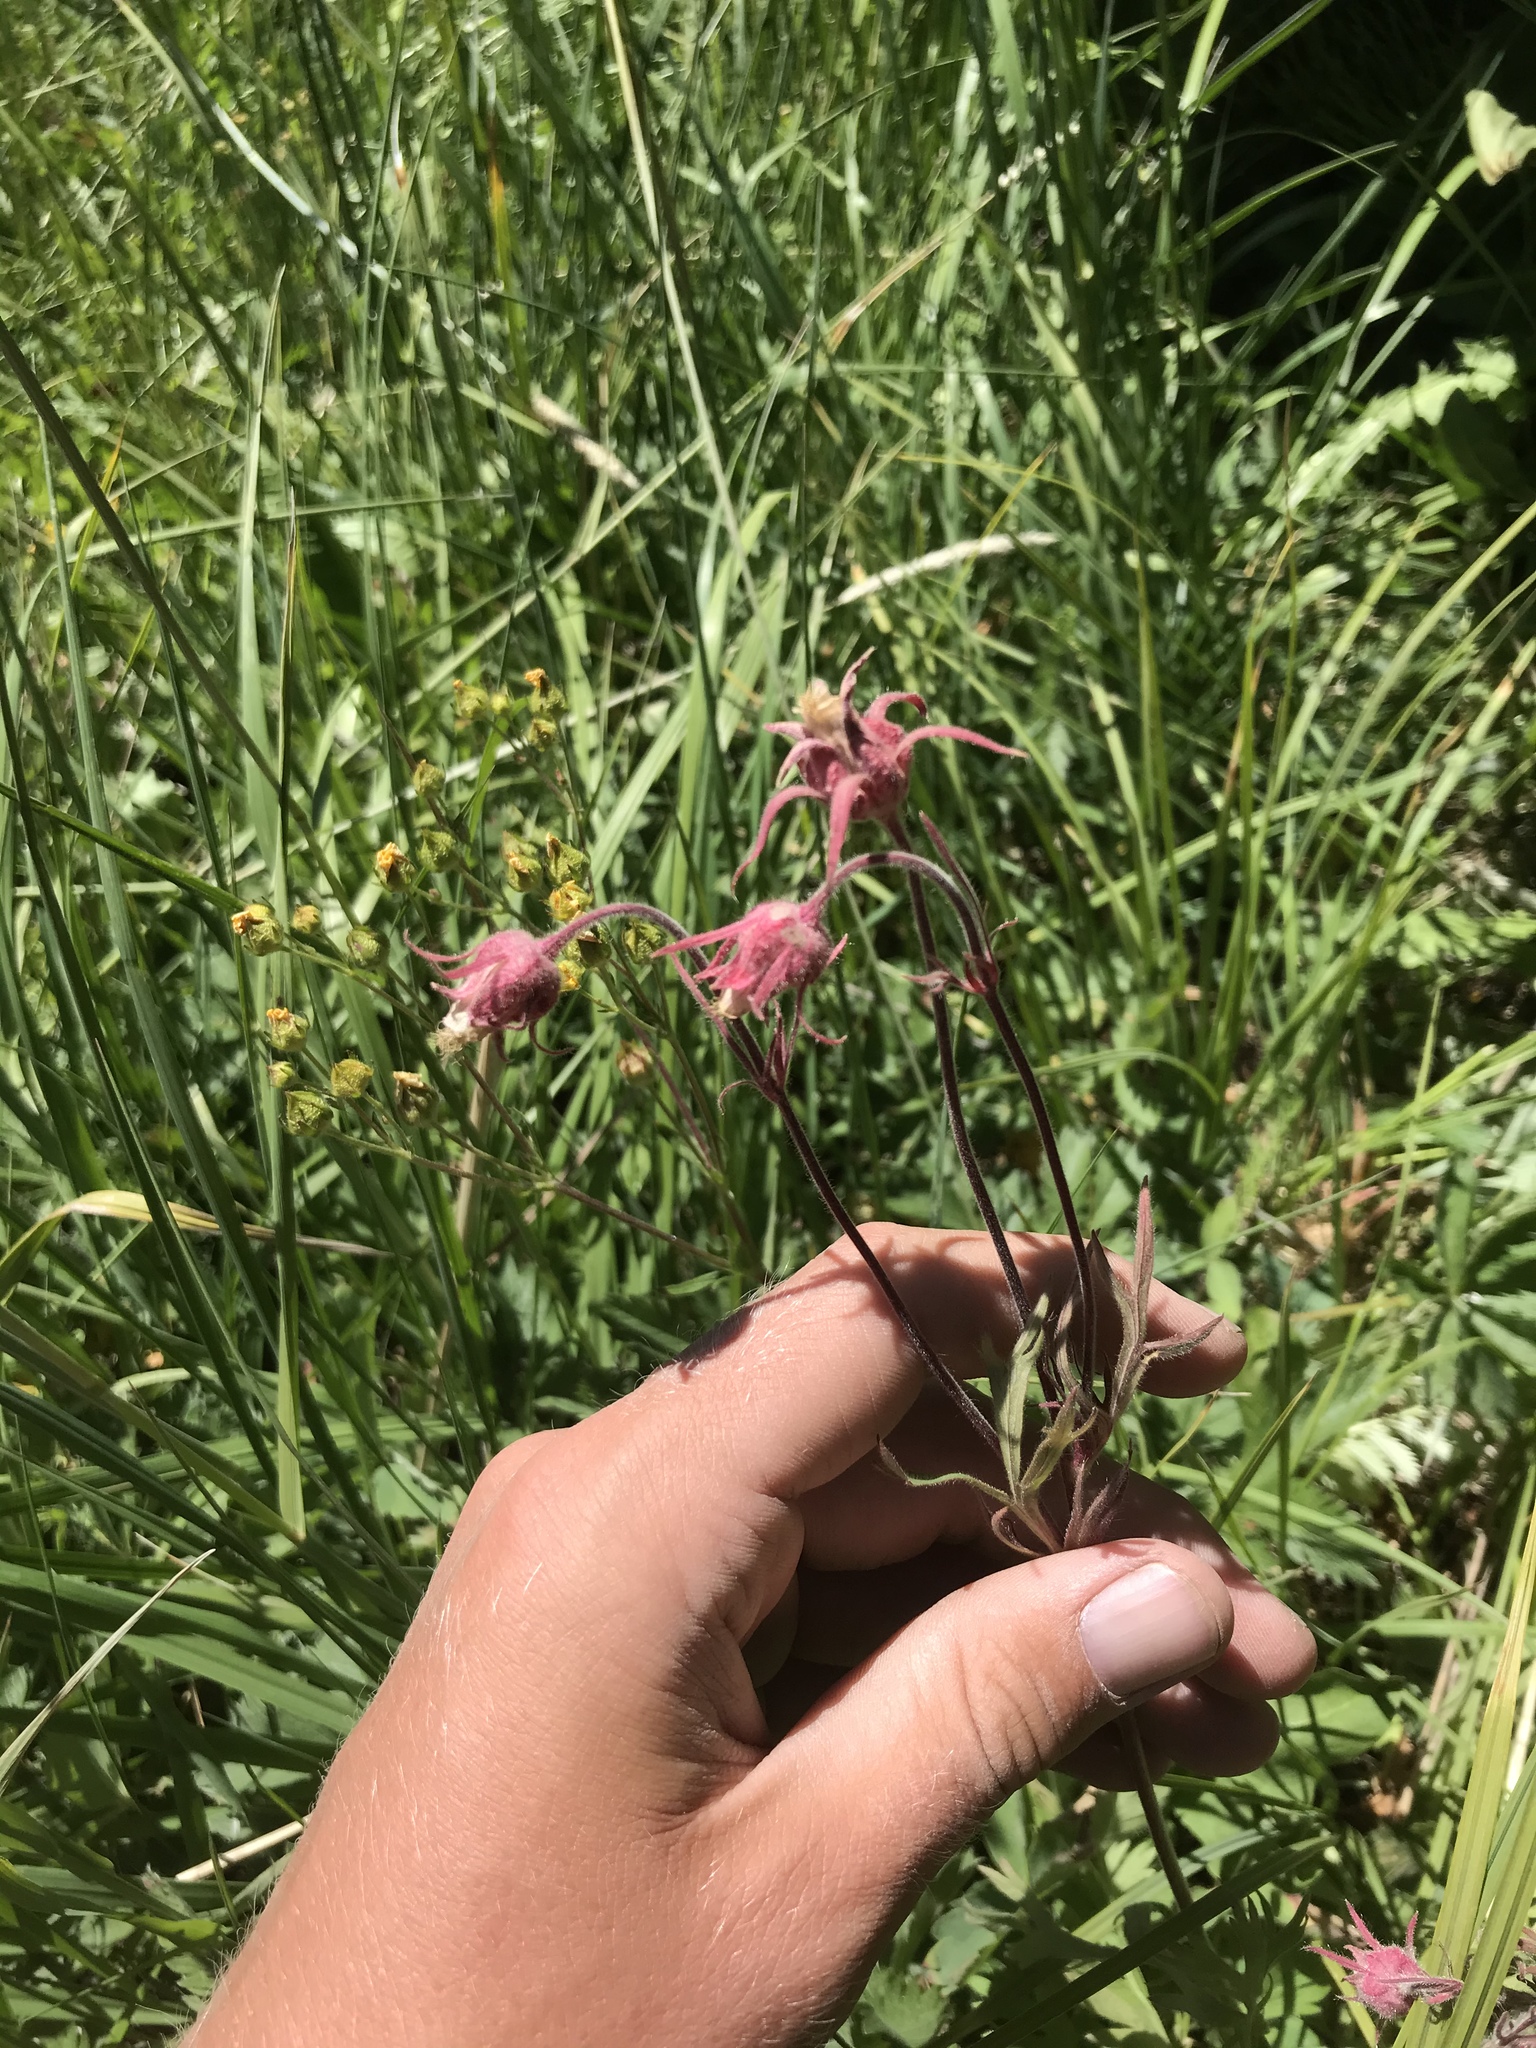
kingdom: Plantae
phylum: Tracheophyta
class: Magnoliopsida
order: Rosales
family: Rosaceae
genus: Geum
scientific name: Geum triflorum
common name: Old man's whiskers
